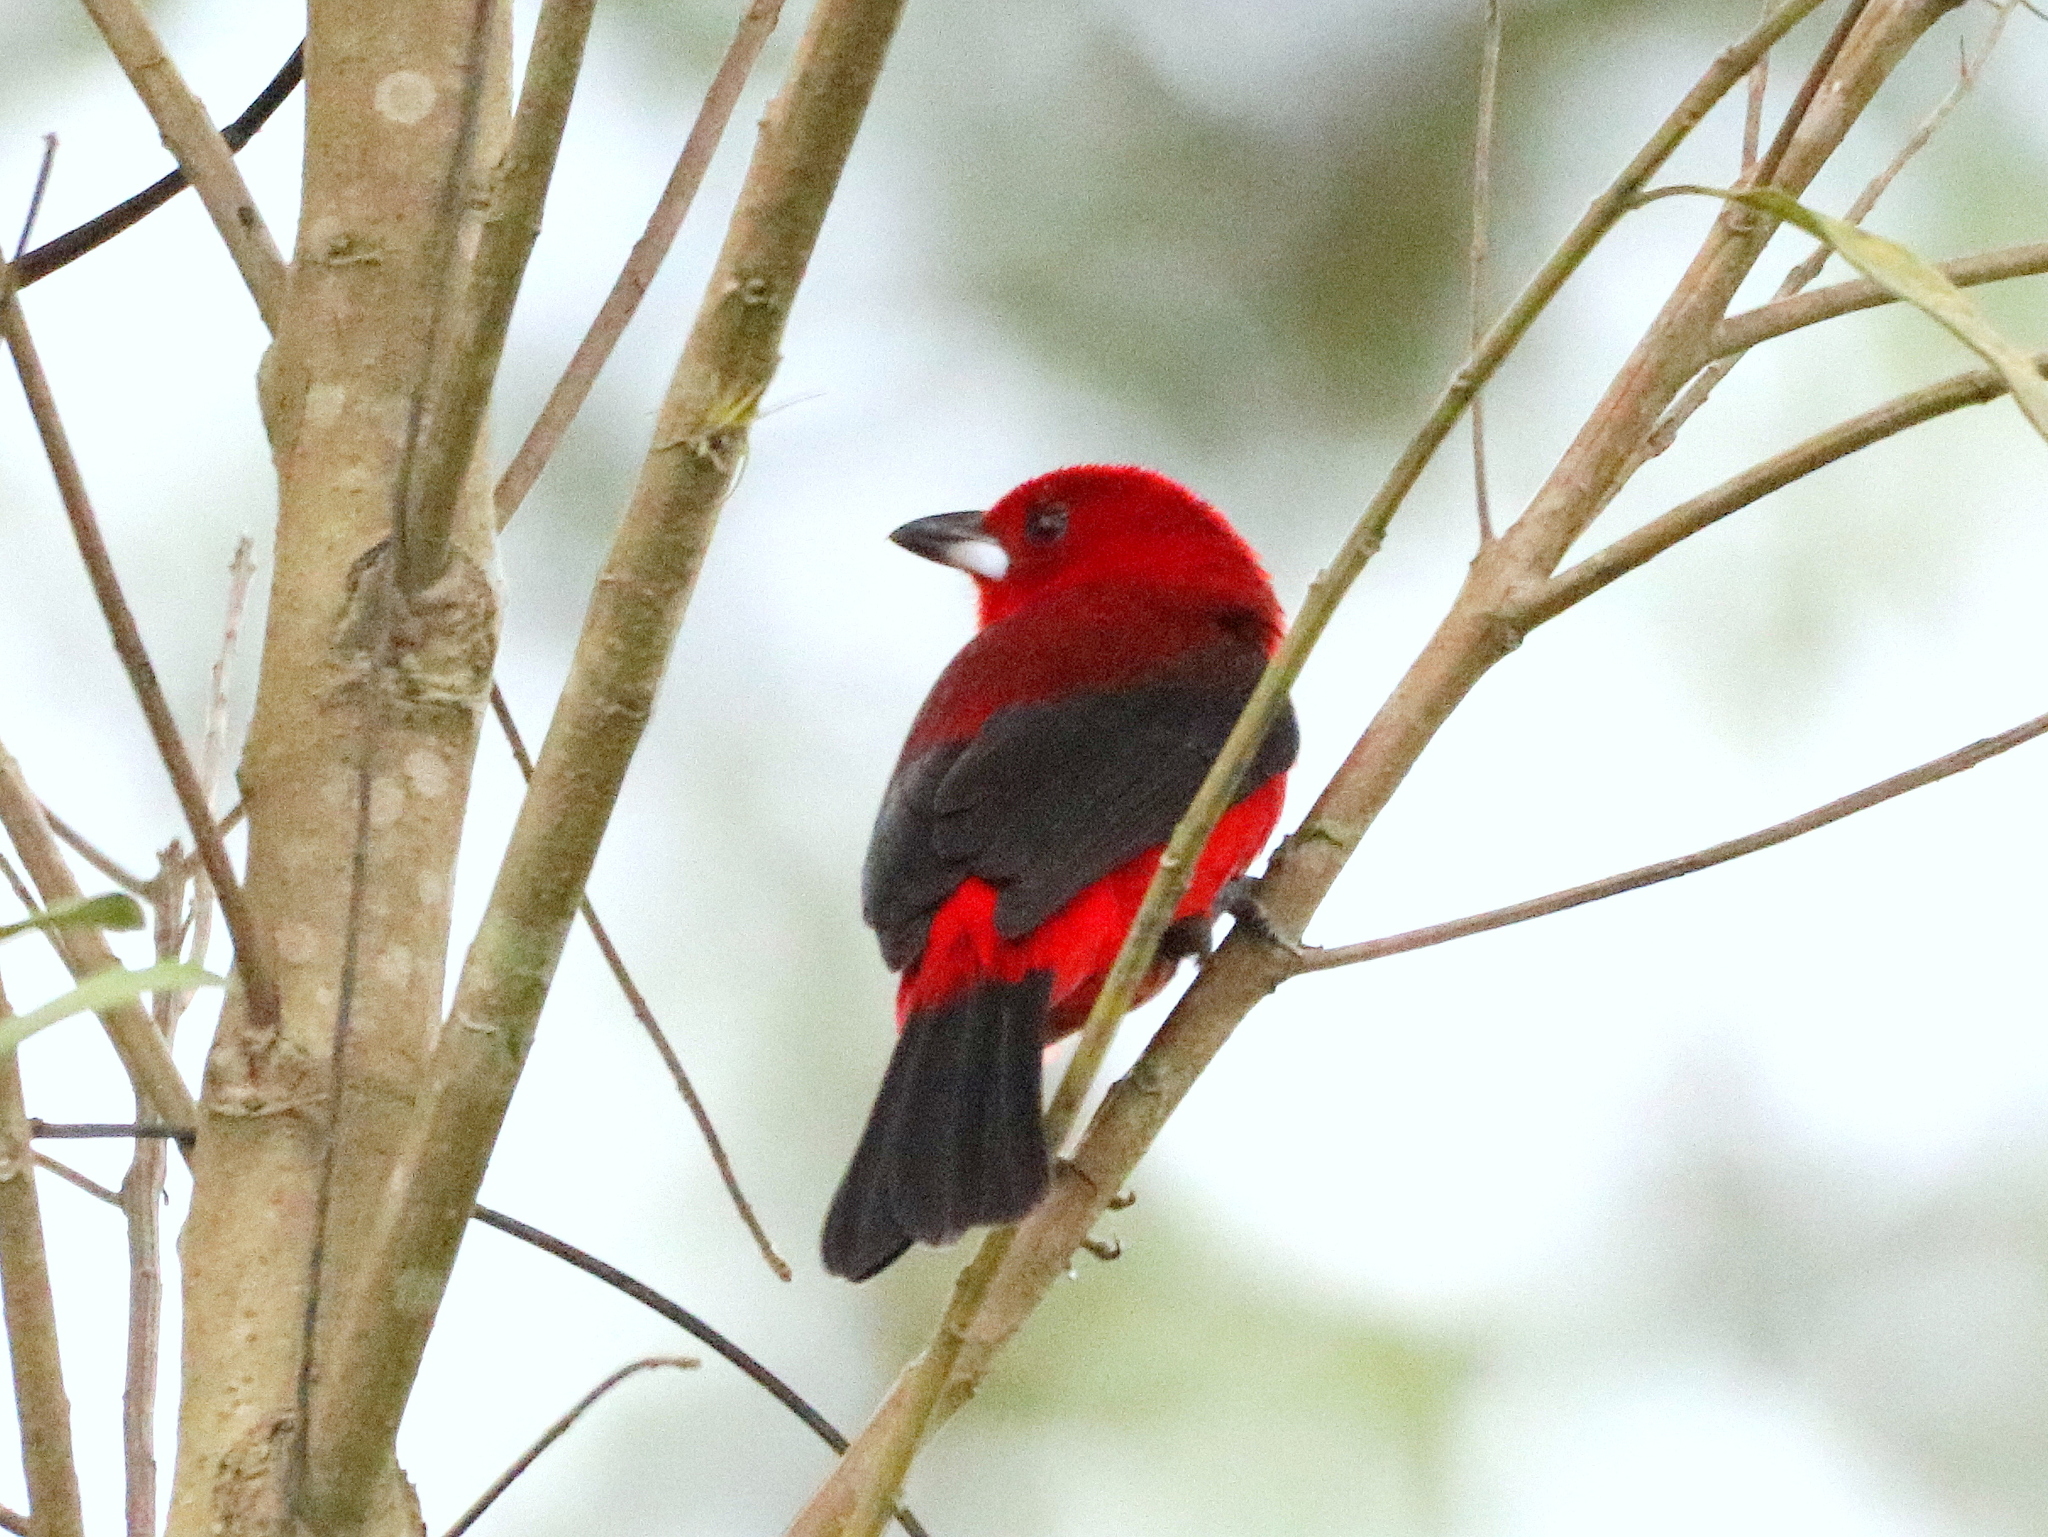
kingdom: Animalia
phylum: Chordata
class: Aves
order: Passeriformes
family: Thraupidae
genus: Ramphocelus
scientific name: Ramphocelus bresilia
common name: Brazilian tanager
